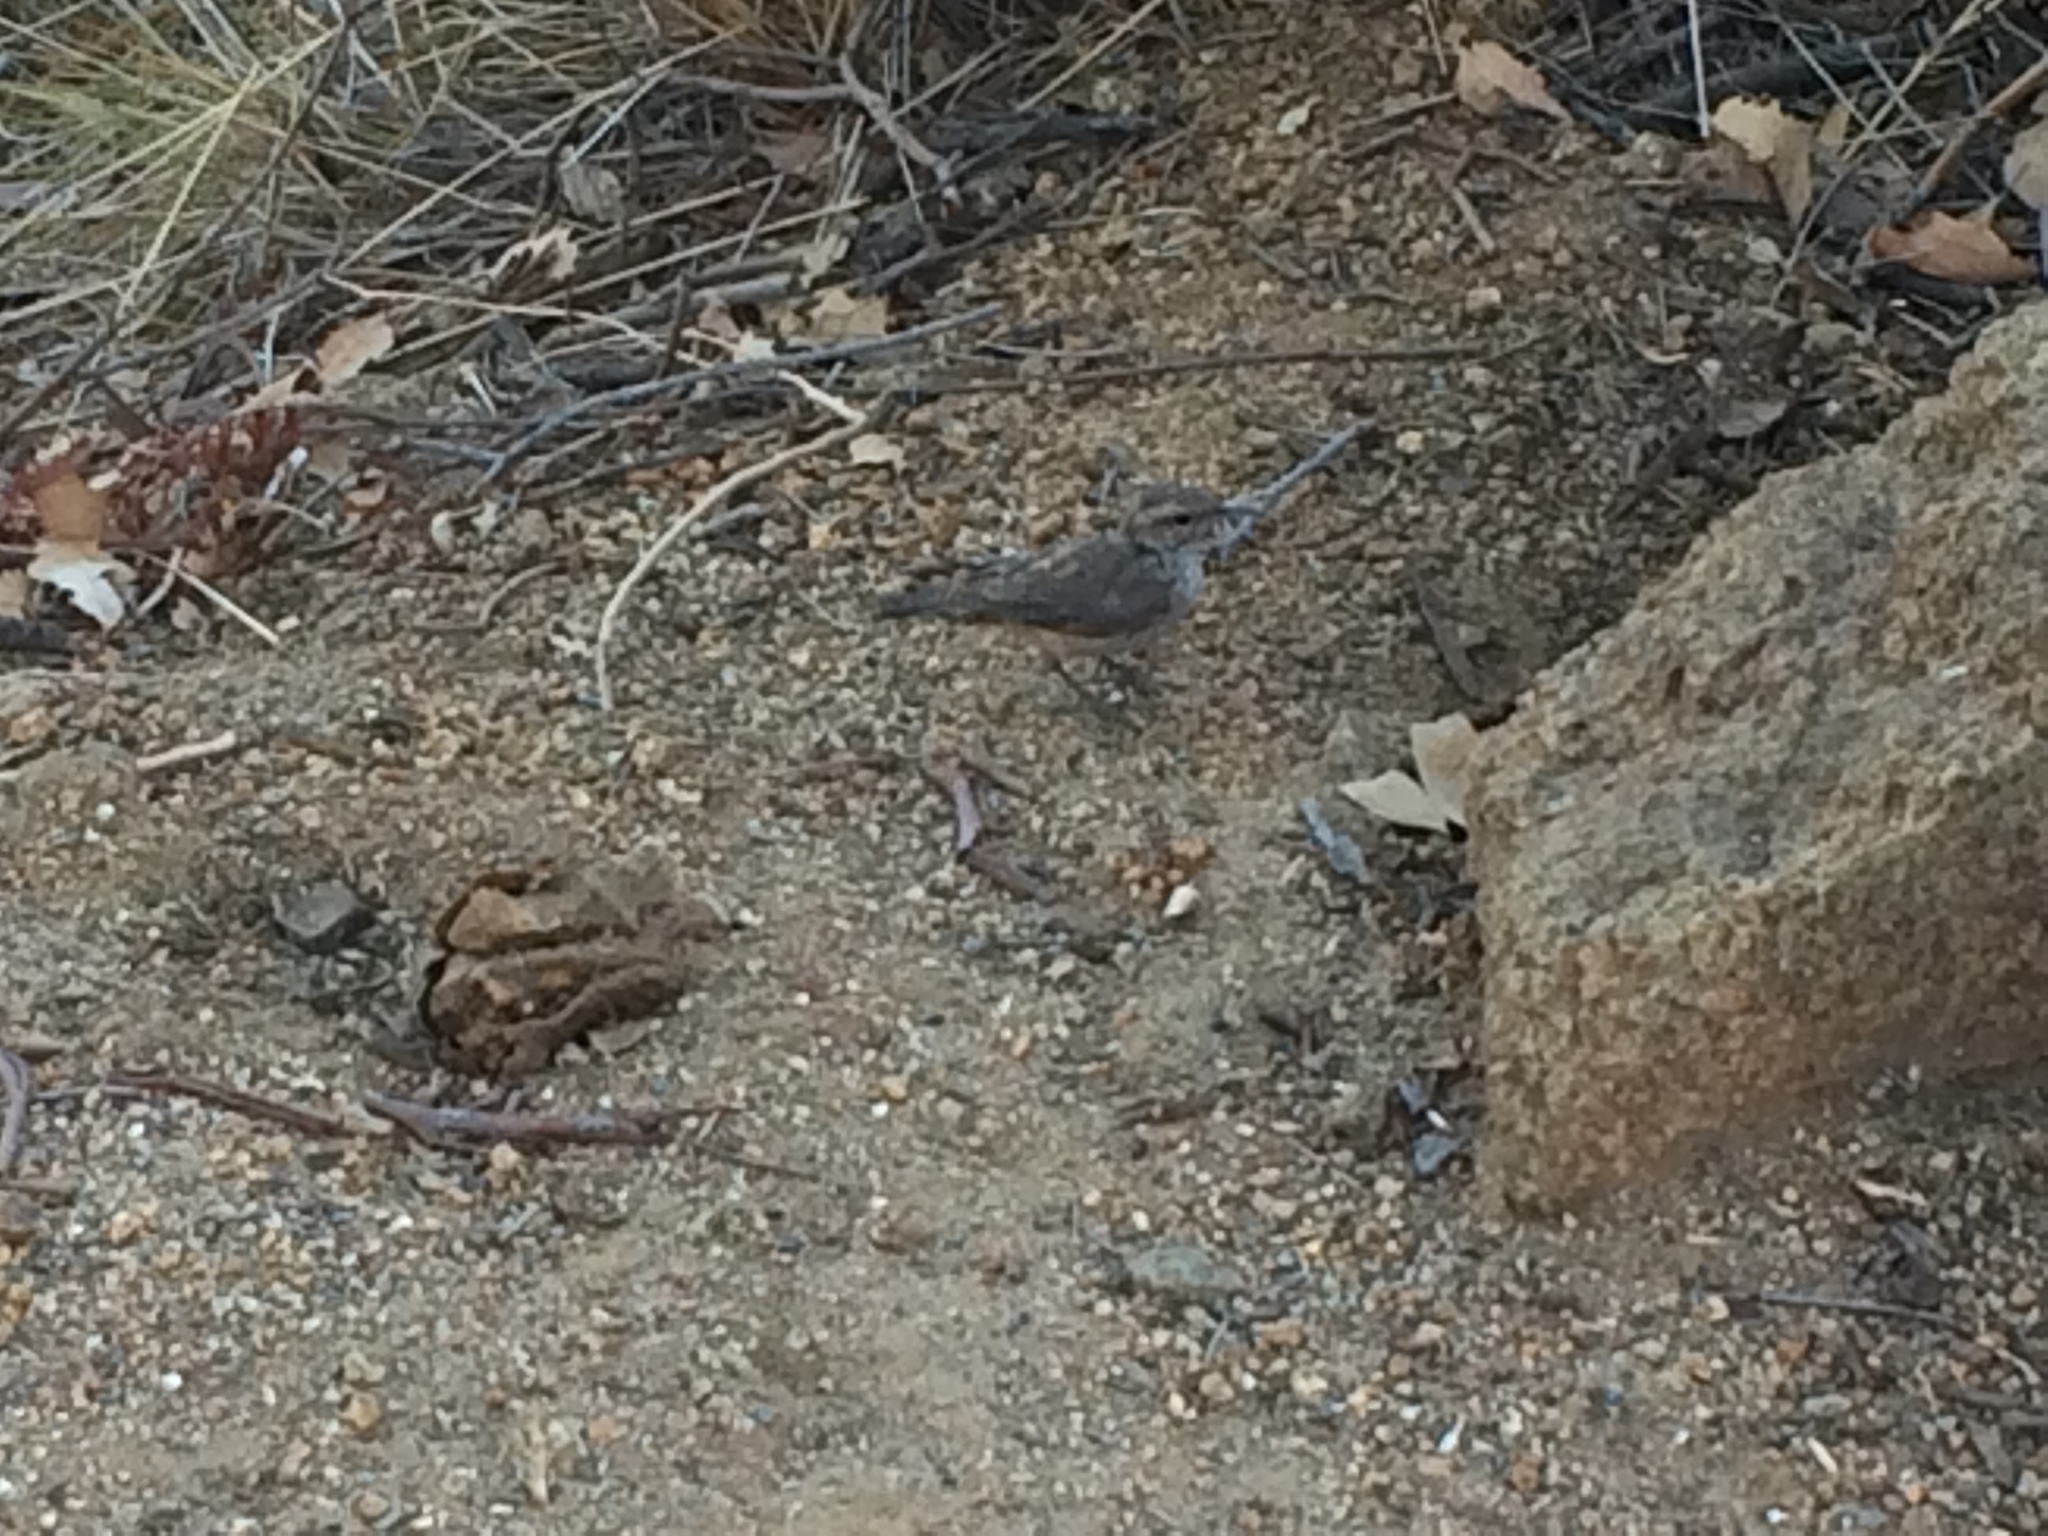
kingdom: Animalia
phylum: Chordata
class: Aves
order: Passeriformes
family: Troglodytidae
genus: Salpinctes
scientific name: Salpinctes obsoletus
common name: Rock wren
